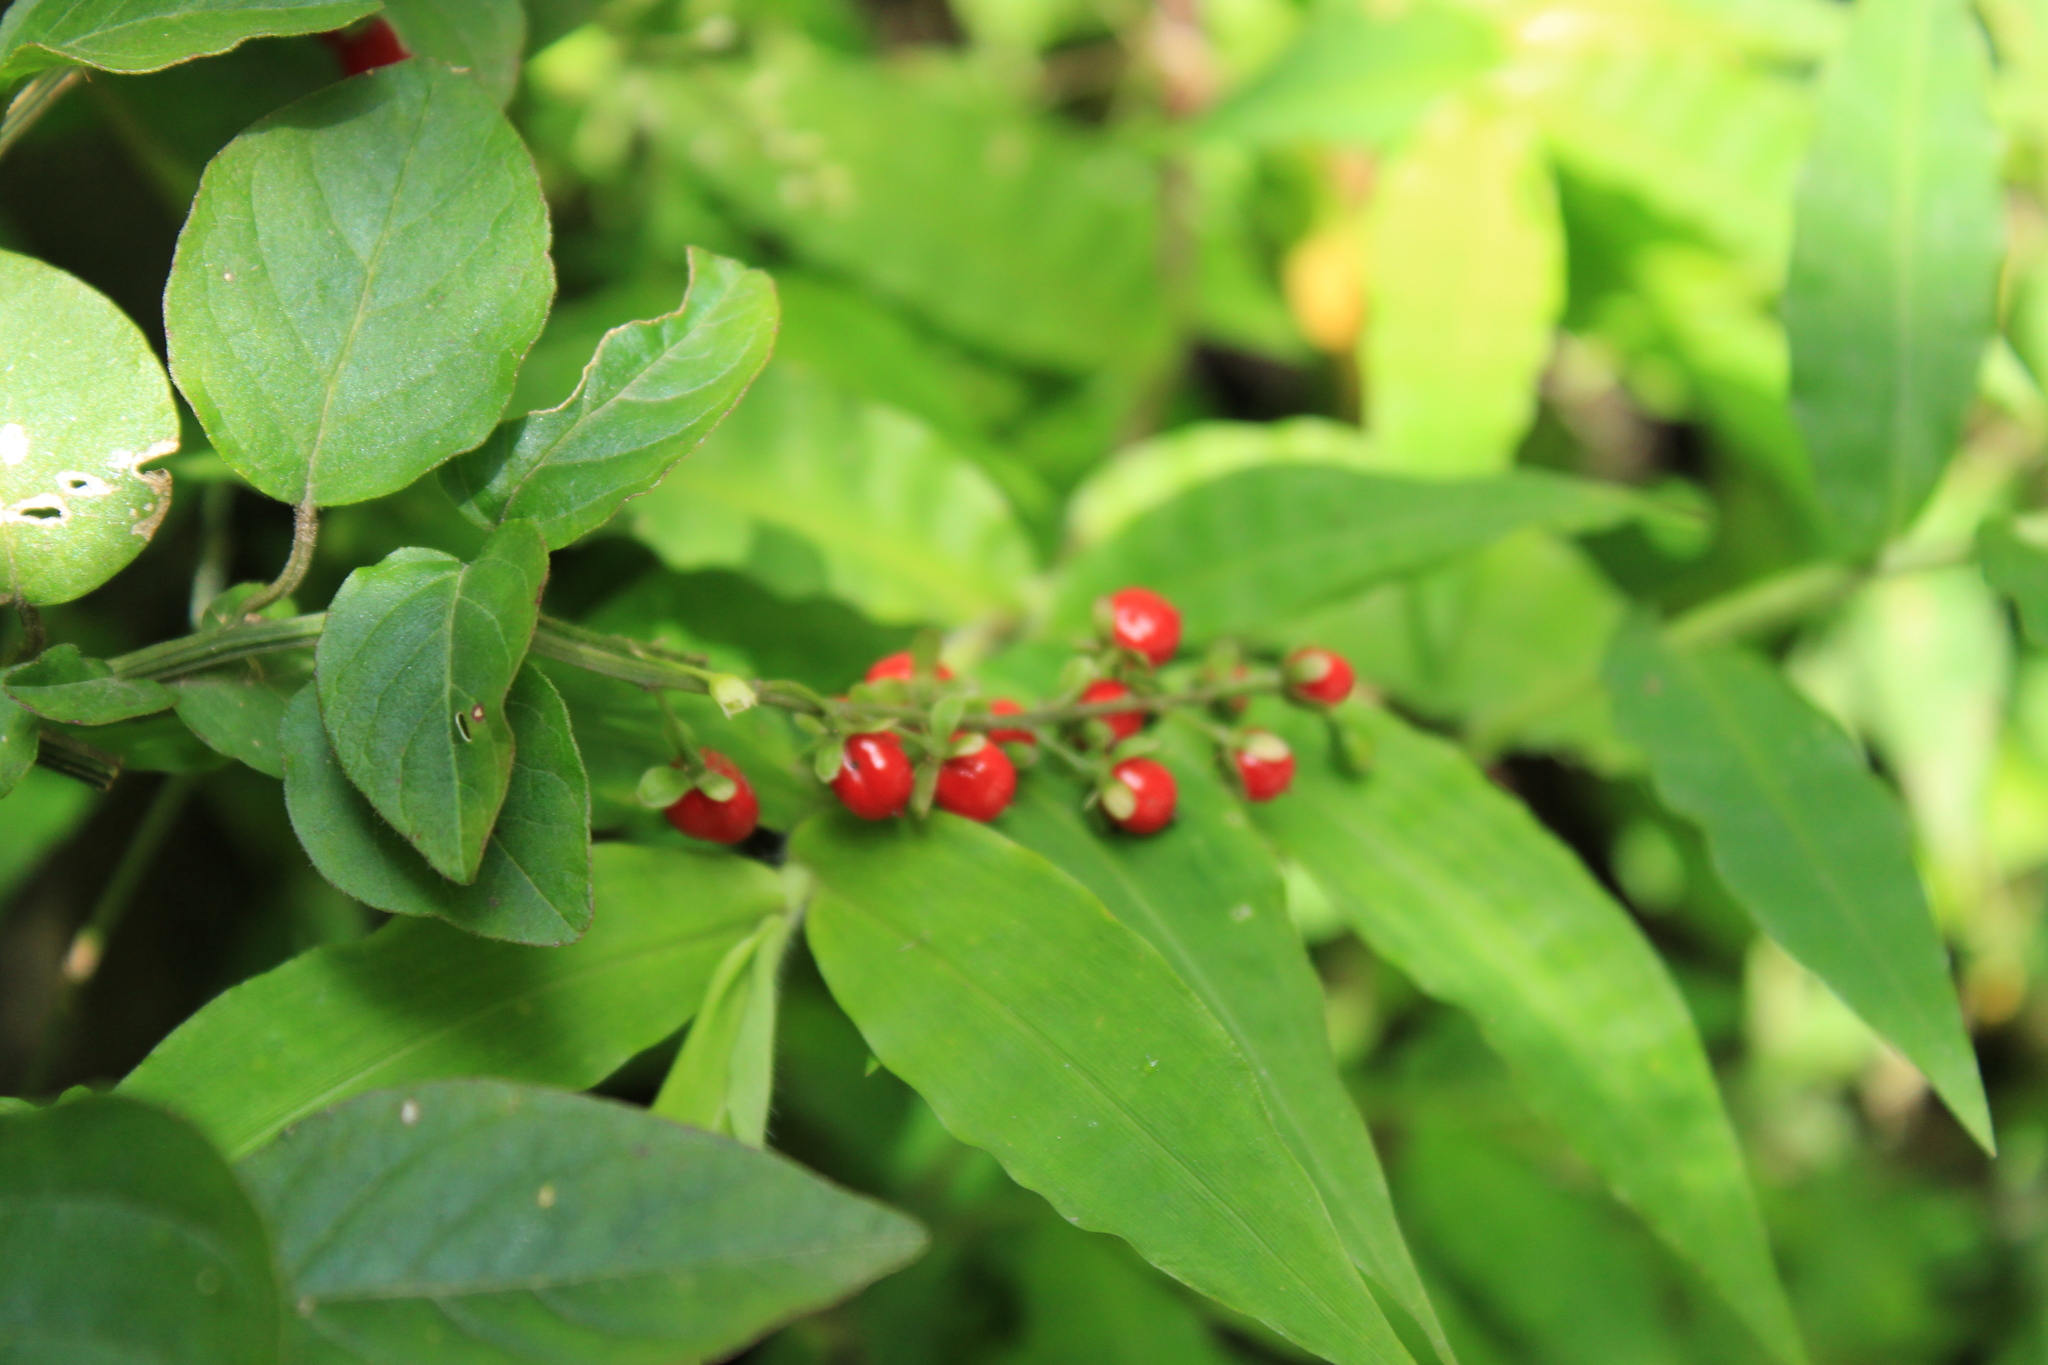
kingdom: Plantae
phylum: Tracheophyta
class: Magnoliopsida
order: Caryophyllales
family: Phytolaccaceae
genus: Rivina
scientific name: Rivina humilis
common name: Rougeplant
